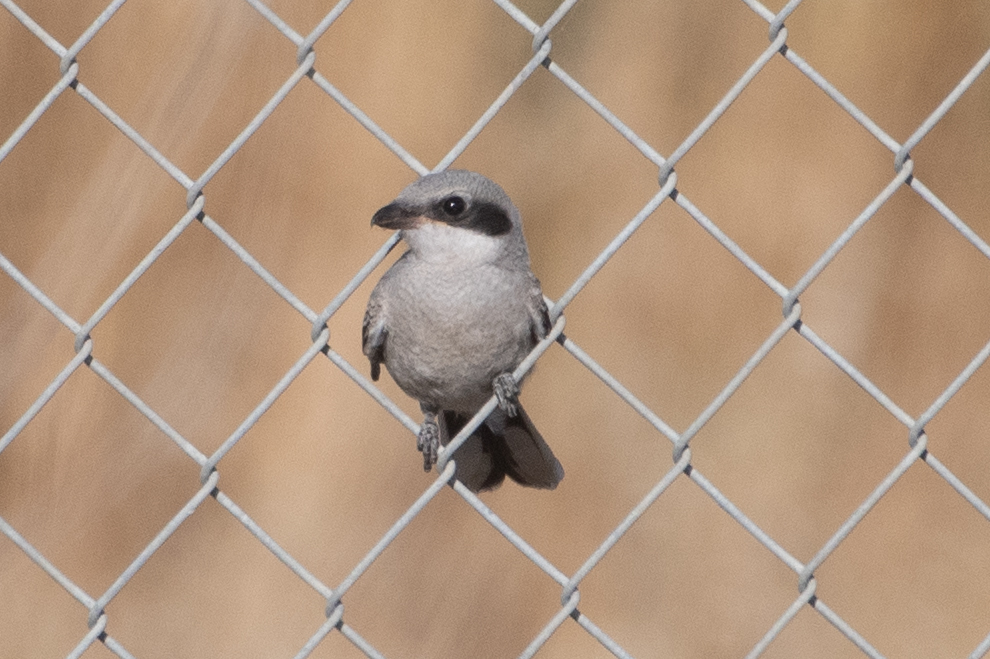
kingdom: Animalia
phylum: Chordata
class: Aves
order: Passeriformes
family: Laniidae
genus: Lanius
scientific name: Lanius ludovicianus
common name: Loggerhead shrike
